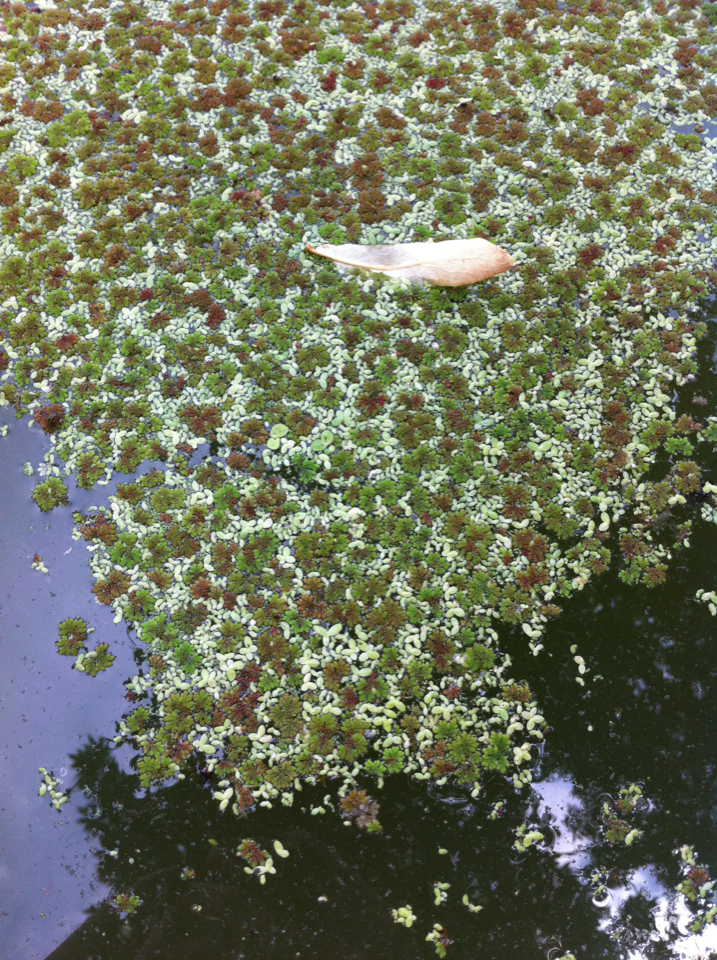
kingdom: Plantae
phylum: Tracheophyta
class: Liliopsida
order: Alismatales
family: Araceae
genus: Lemna
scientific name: Lemna minor
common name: Common duckweed
